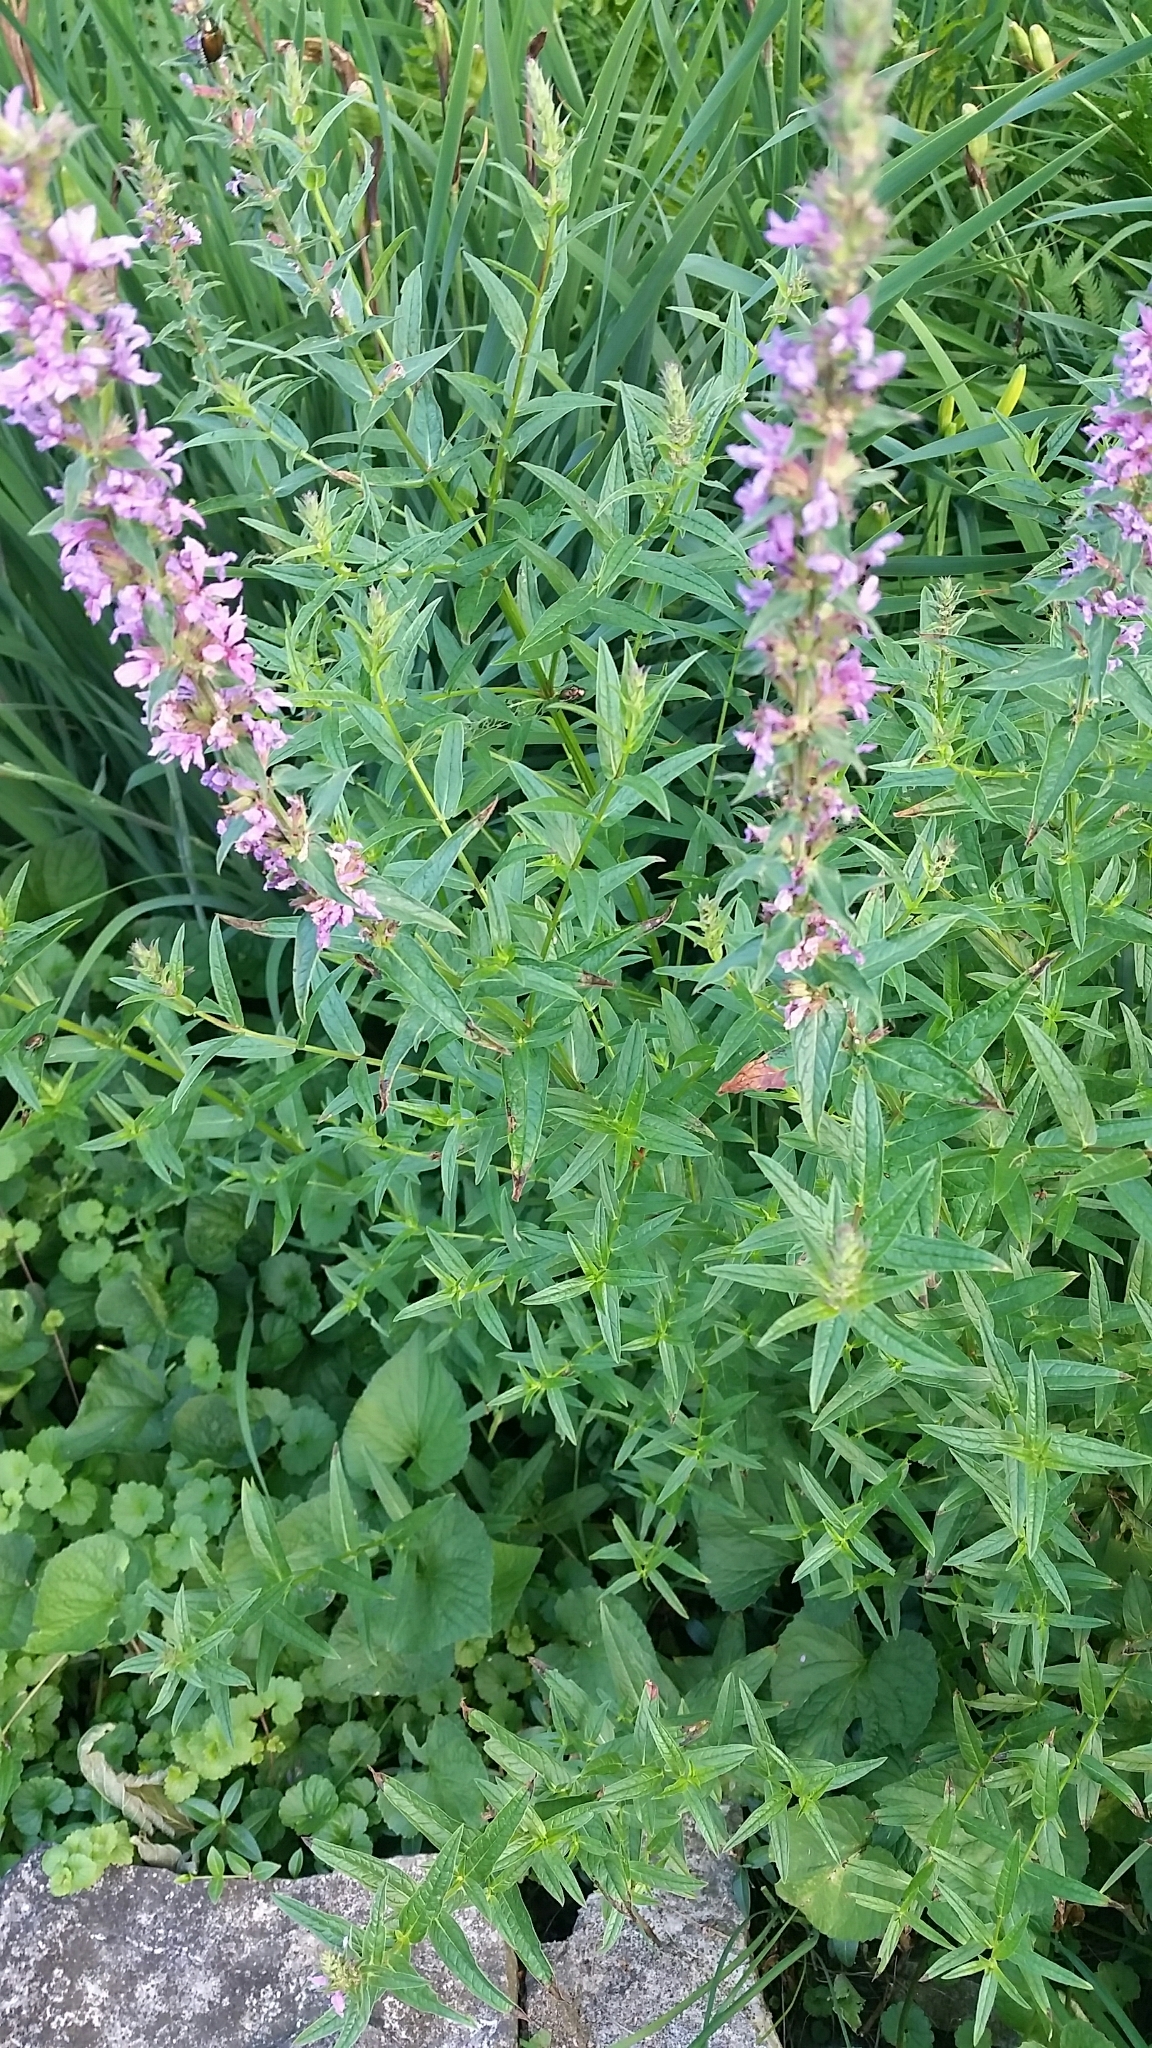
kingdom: Plantae
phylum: Tracheophyta
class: Magnoliopsida
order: Myrtales
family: Lythraceae
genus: Lythrum
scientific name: Lythrum salicaria
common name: Purple loosestrife
